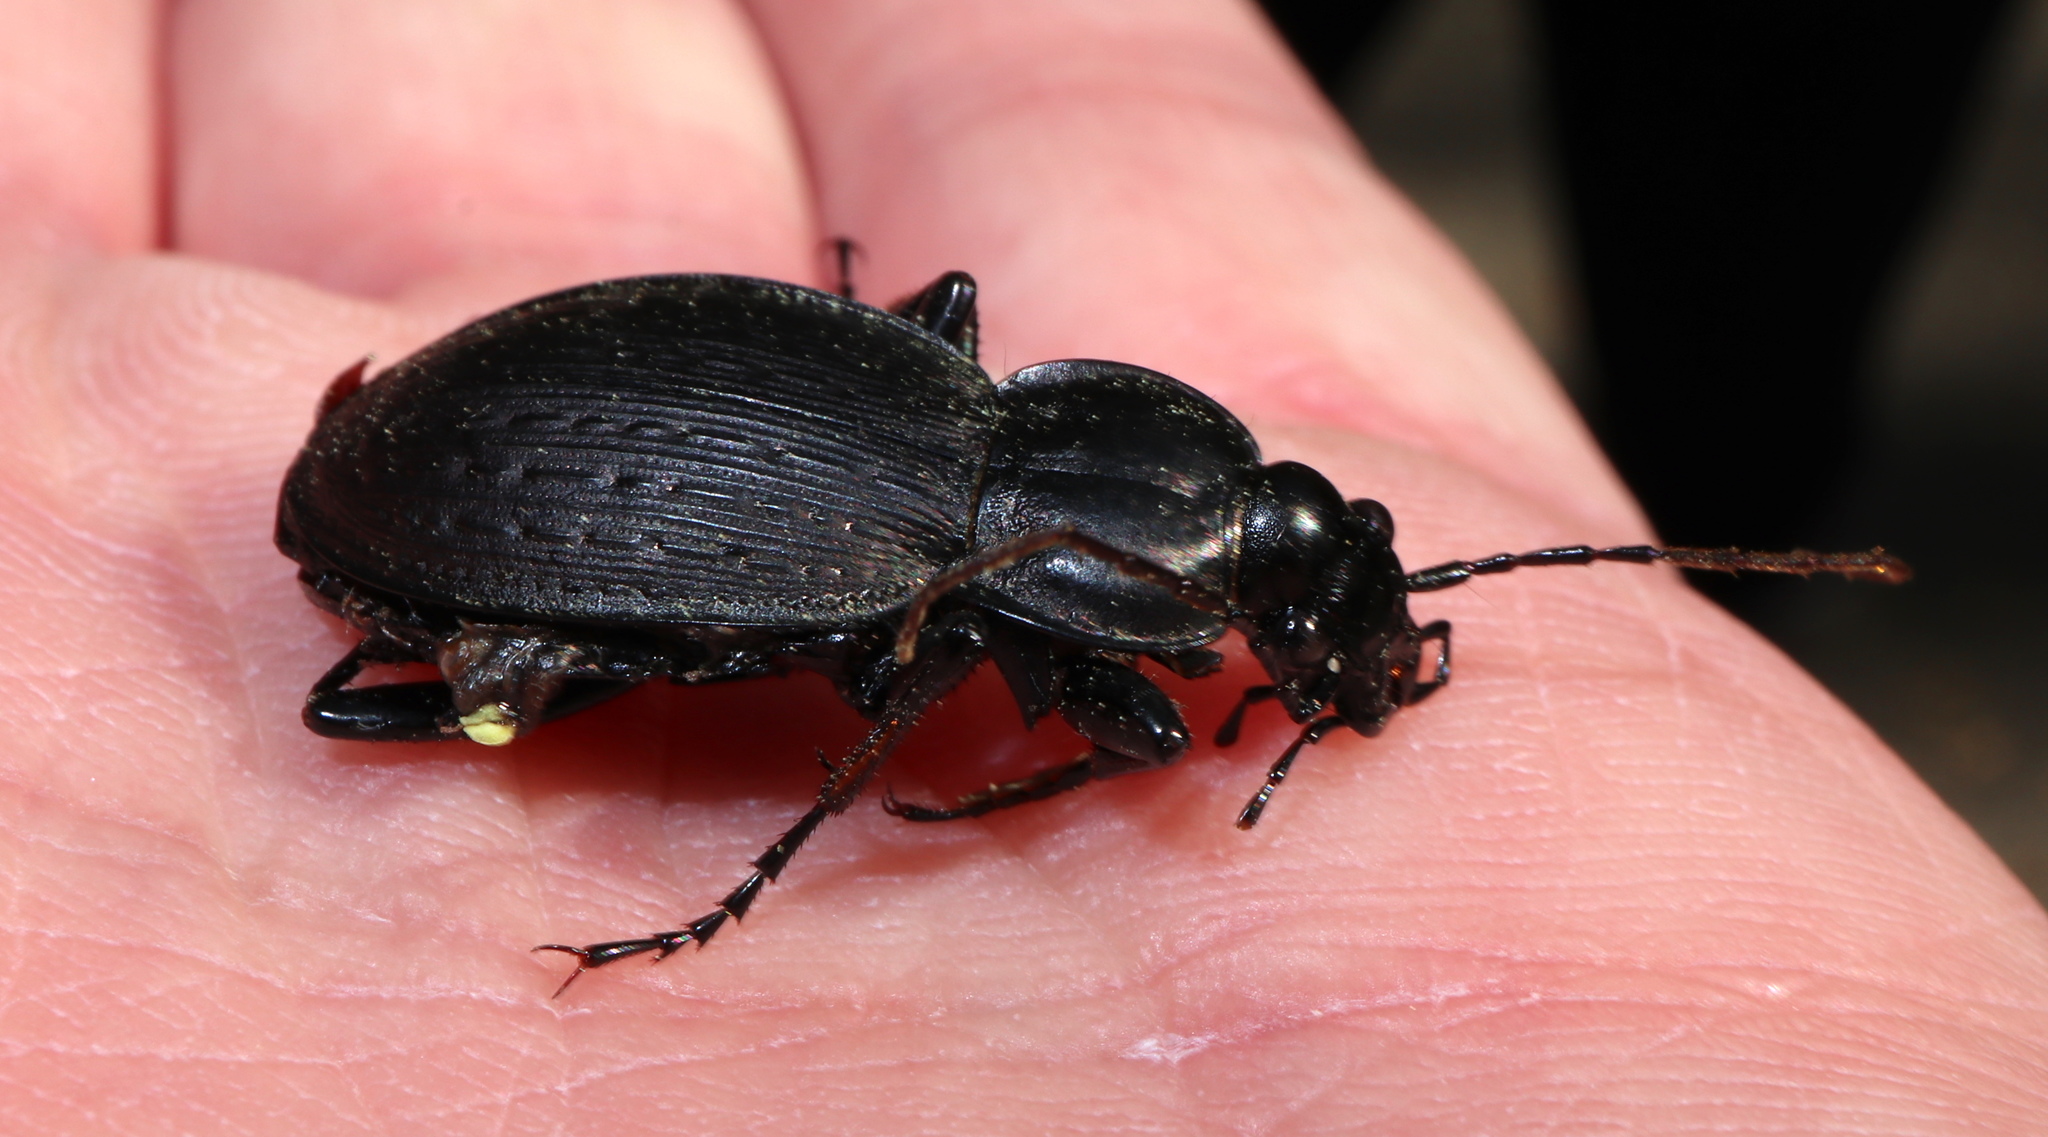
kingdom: Animalia
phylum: Arthropoda
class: Insecta
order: Coleoptera
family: Carabidae
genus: Carabus
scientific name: Carabus vinctus
